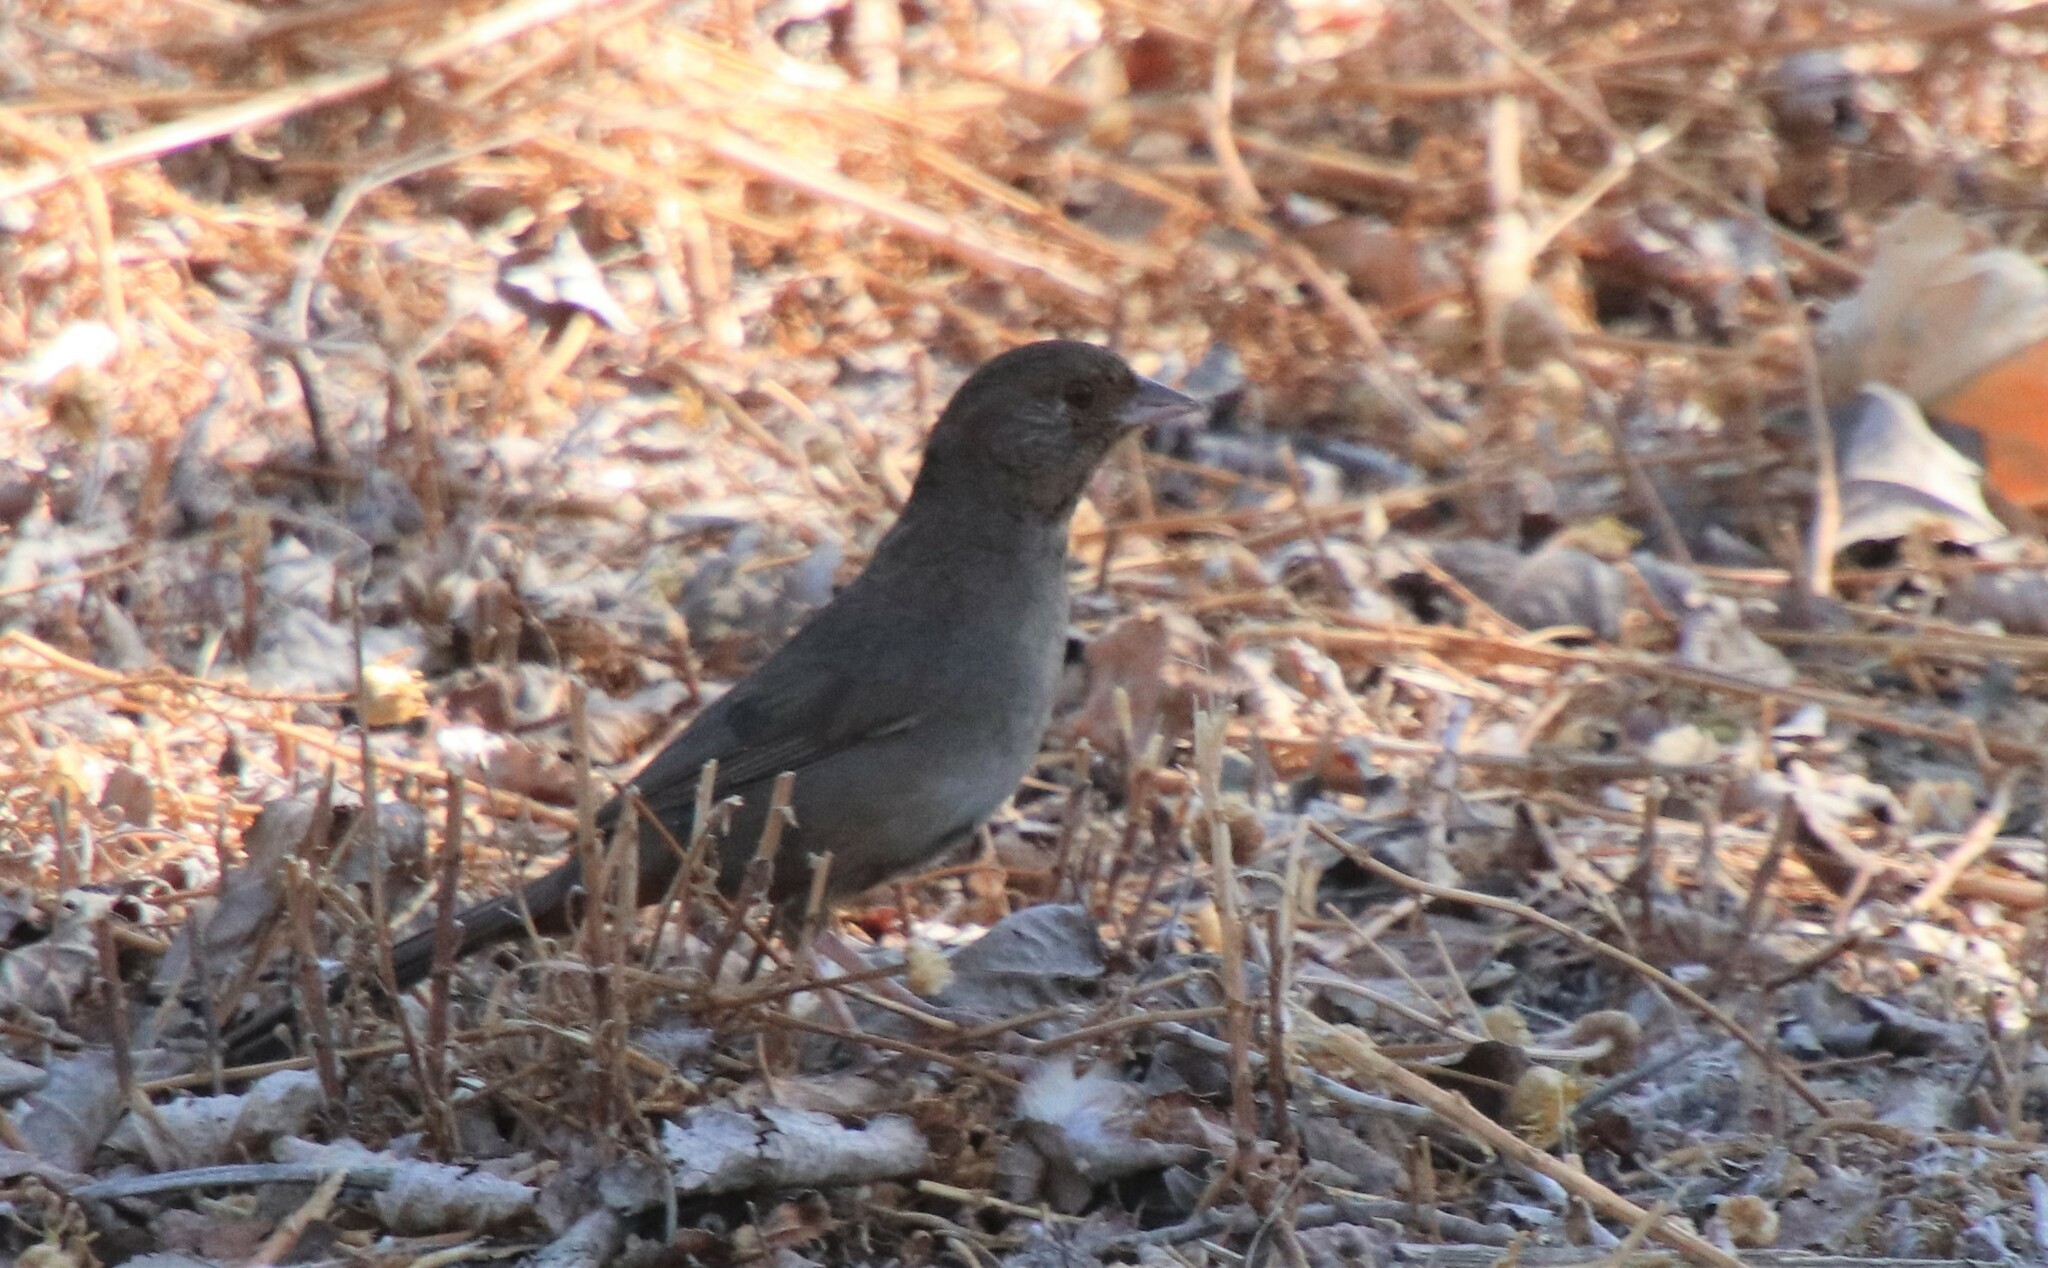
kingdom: Animalia
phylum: Chordata
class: Aves
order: Passeriformes
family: Passerellidae
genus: Melozone
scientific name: Melozone crissalis
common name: California towhee
